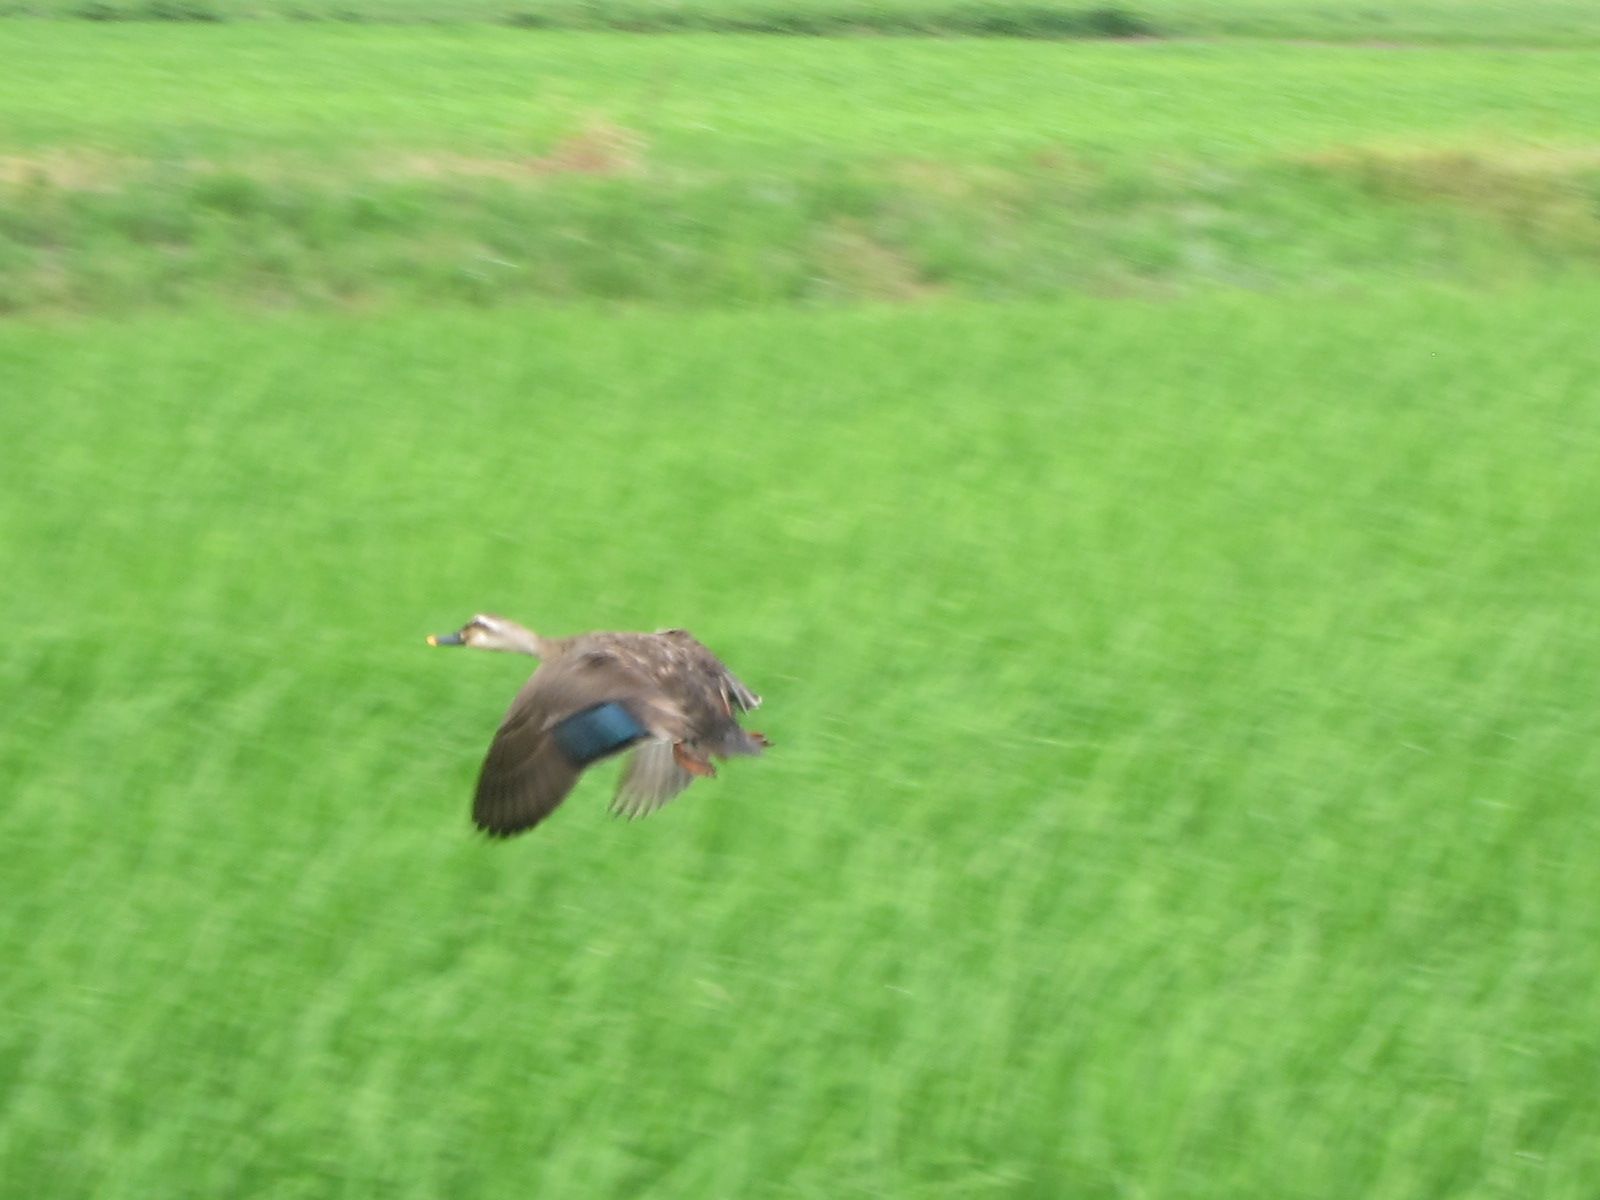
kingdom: Animalia
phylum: Chordata
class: Aves
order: Anseriformes
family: Anatidae
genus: Anas
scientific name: Anas zonorhyncha
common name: Eastern spot-billed duck
